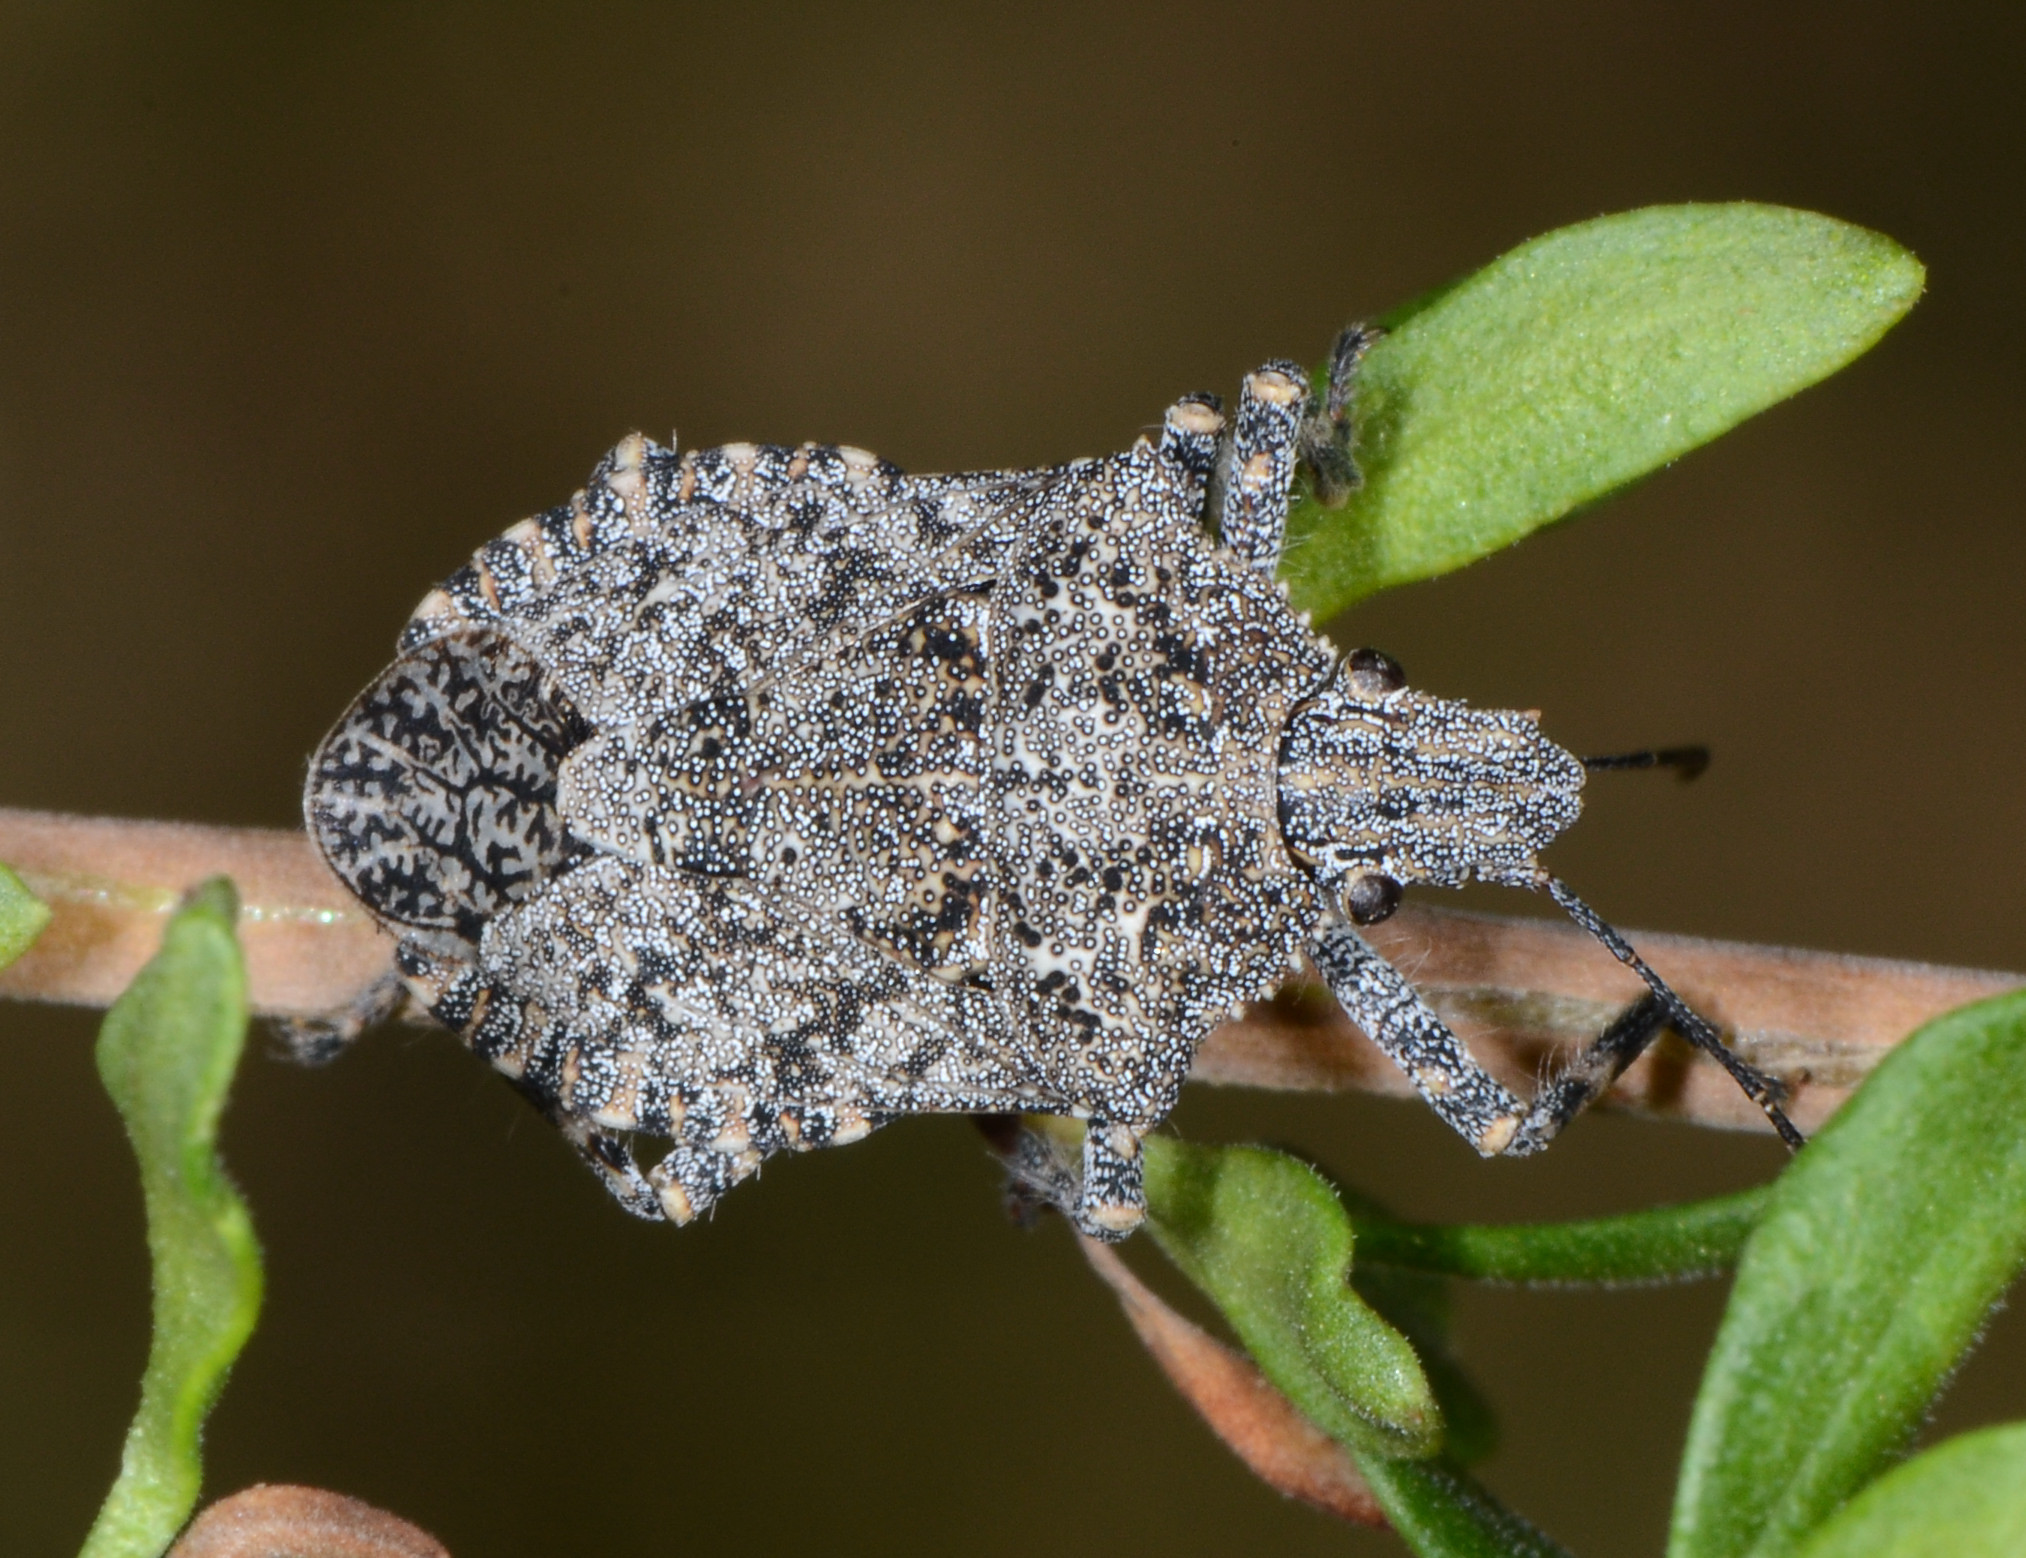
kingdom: Animalia
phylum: Arthropoda
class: Insecta
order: Hemiptera
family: Pentatomidae
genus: Brochymena
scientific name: Brochymena sulcata
